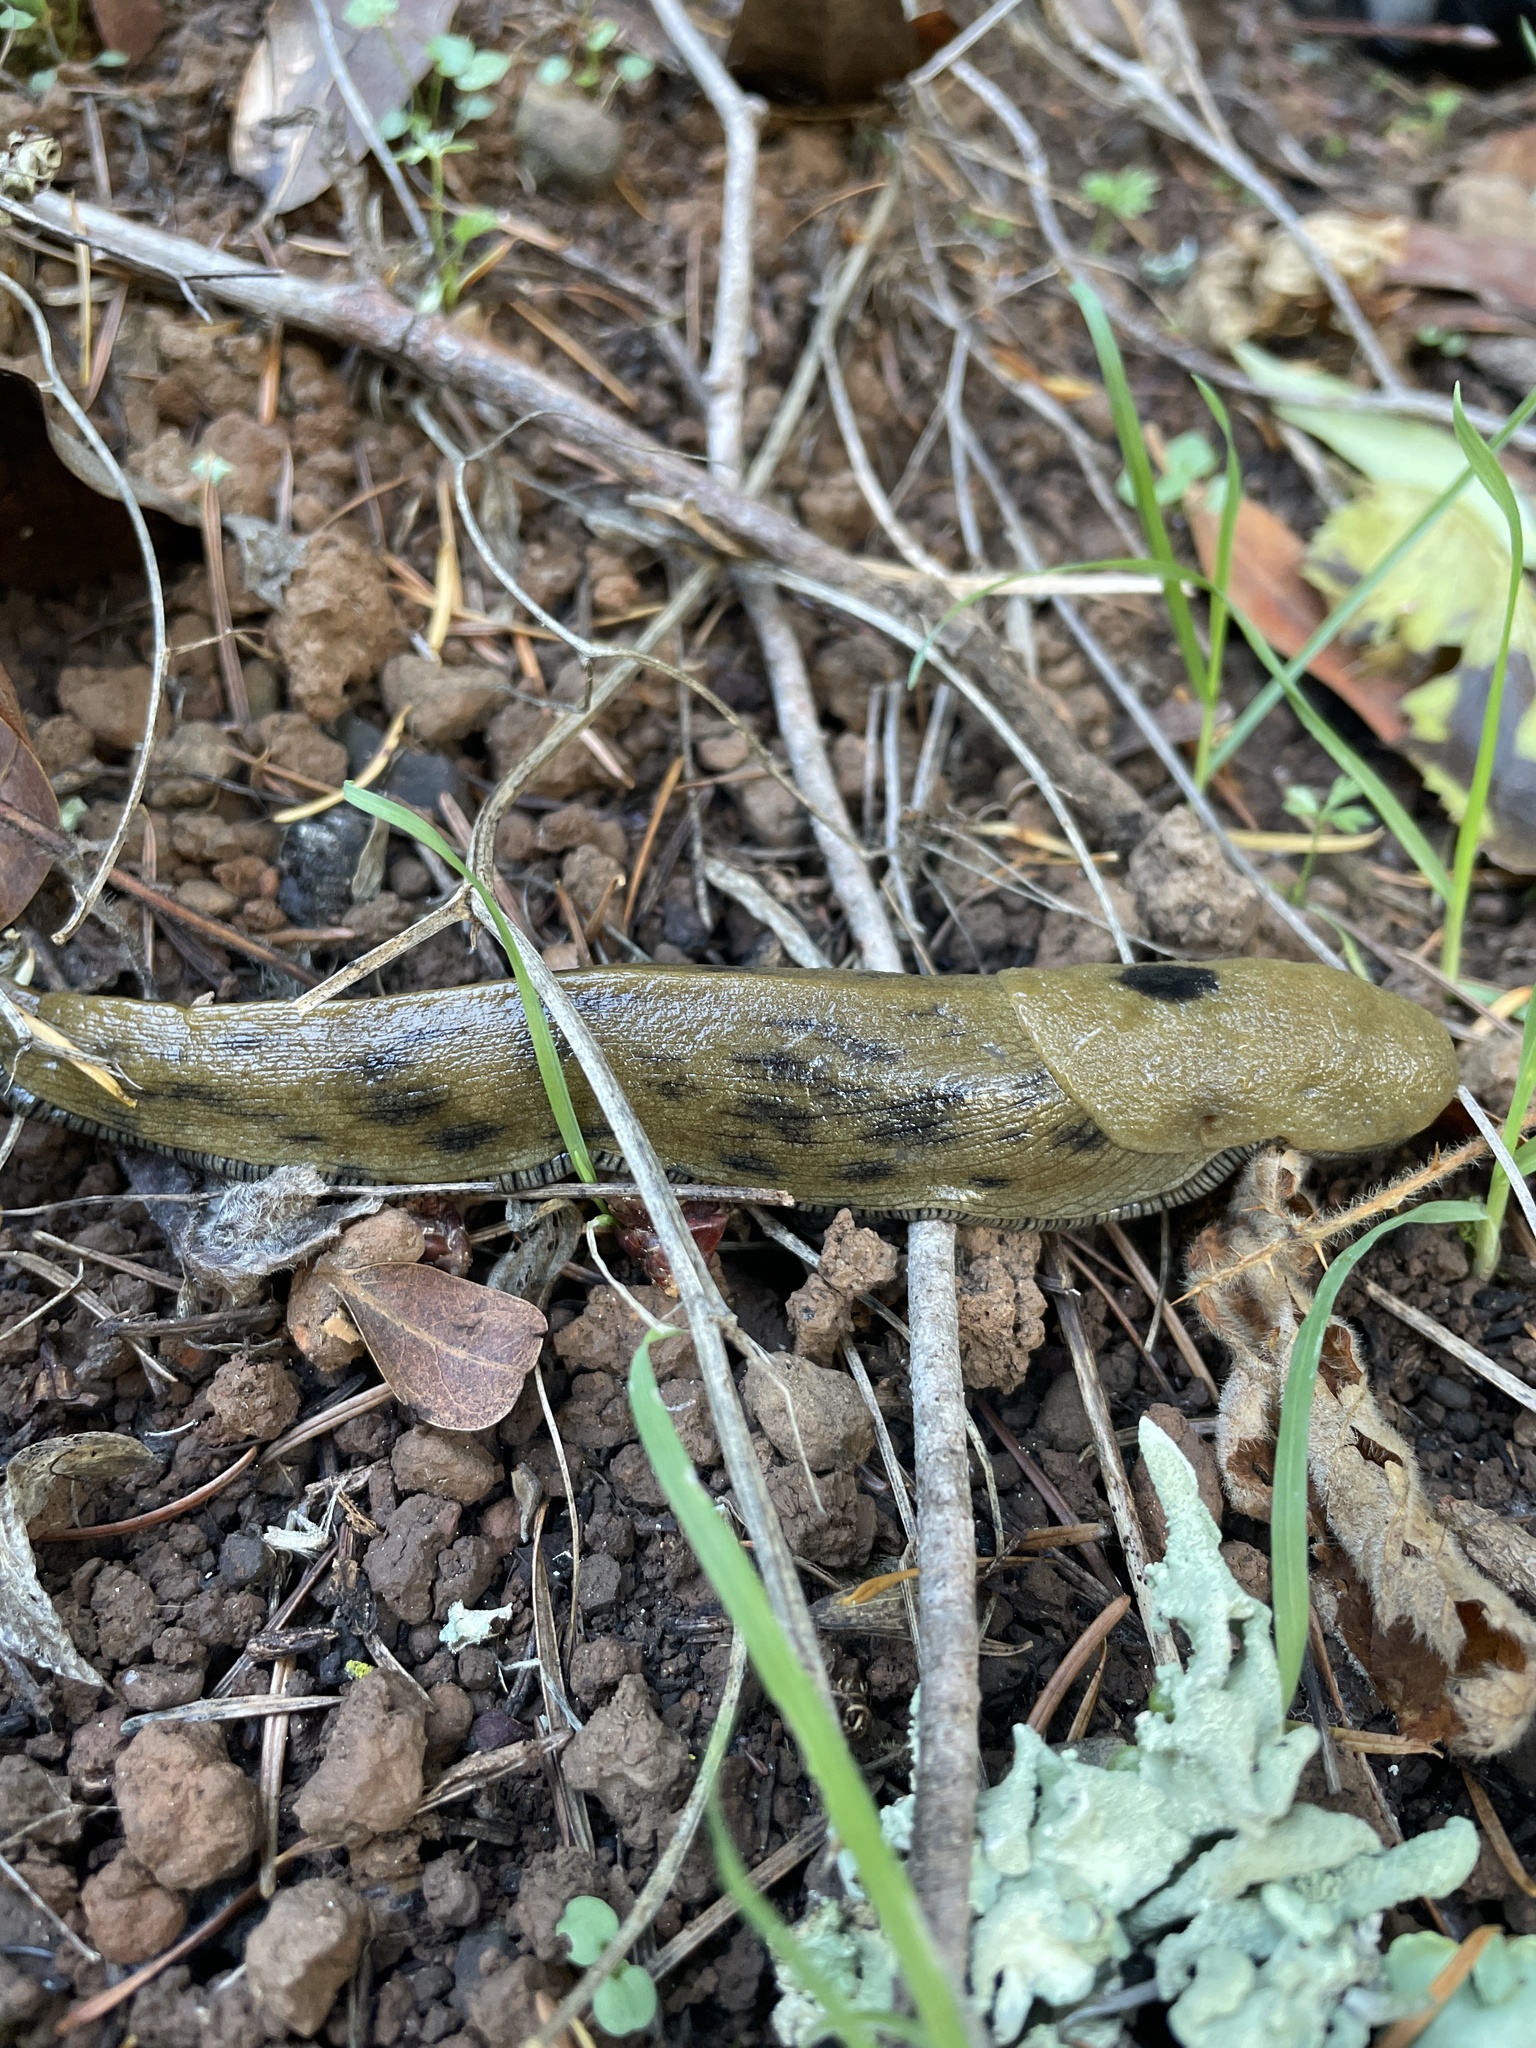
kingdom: Animalia
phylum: Mollusca
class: Gastropoda
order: Stylommatophora
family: Ariolimacidae
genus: Ariolimax
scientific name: Ariolimax buttoni
